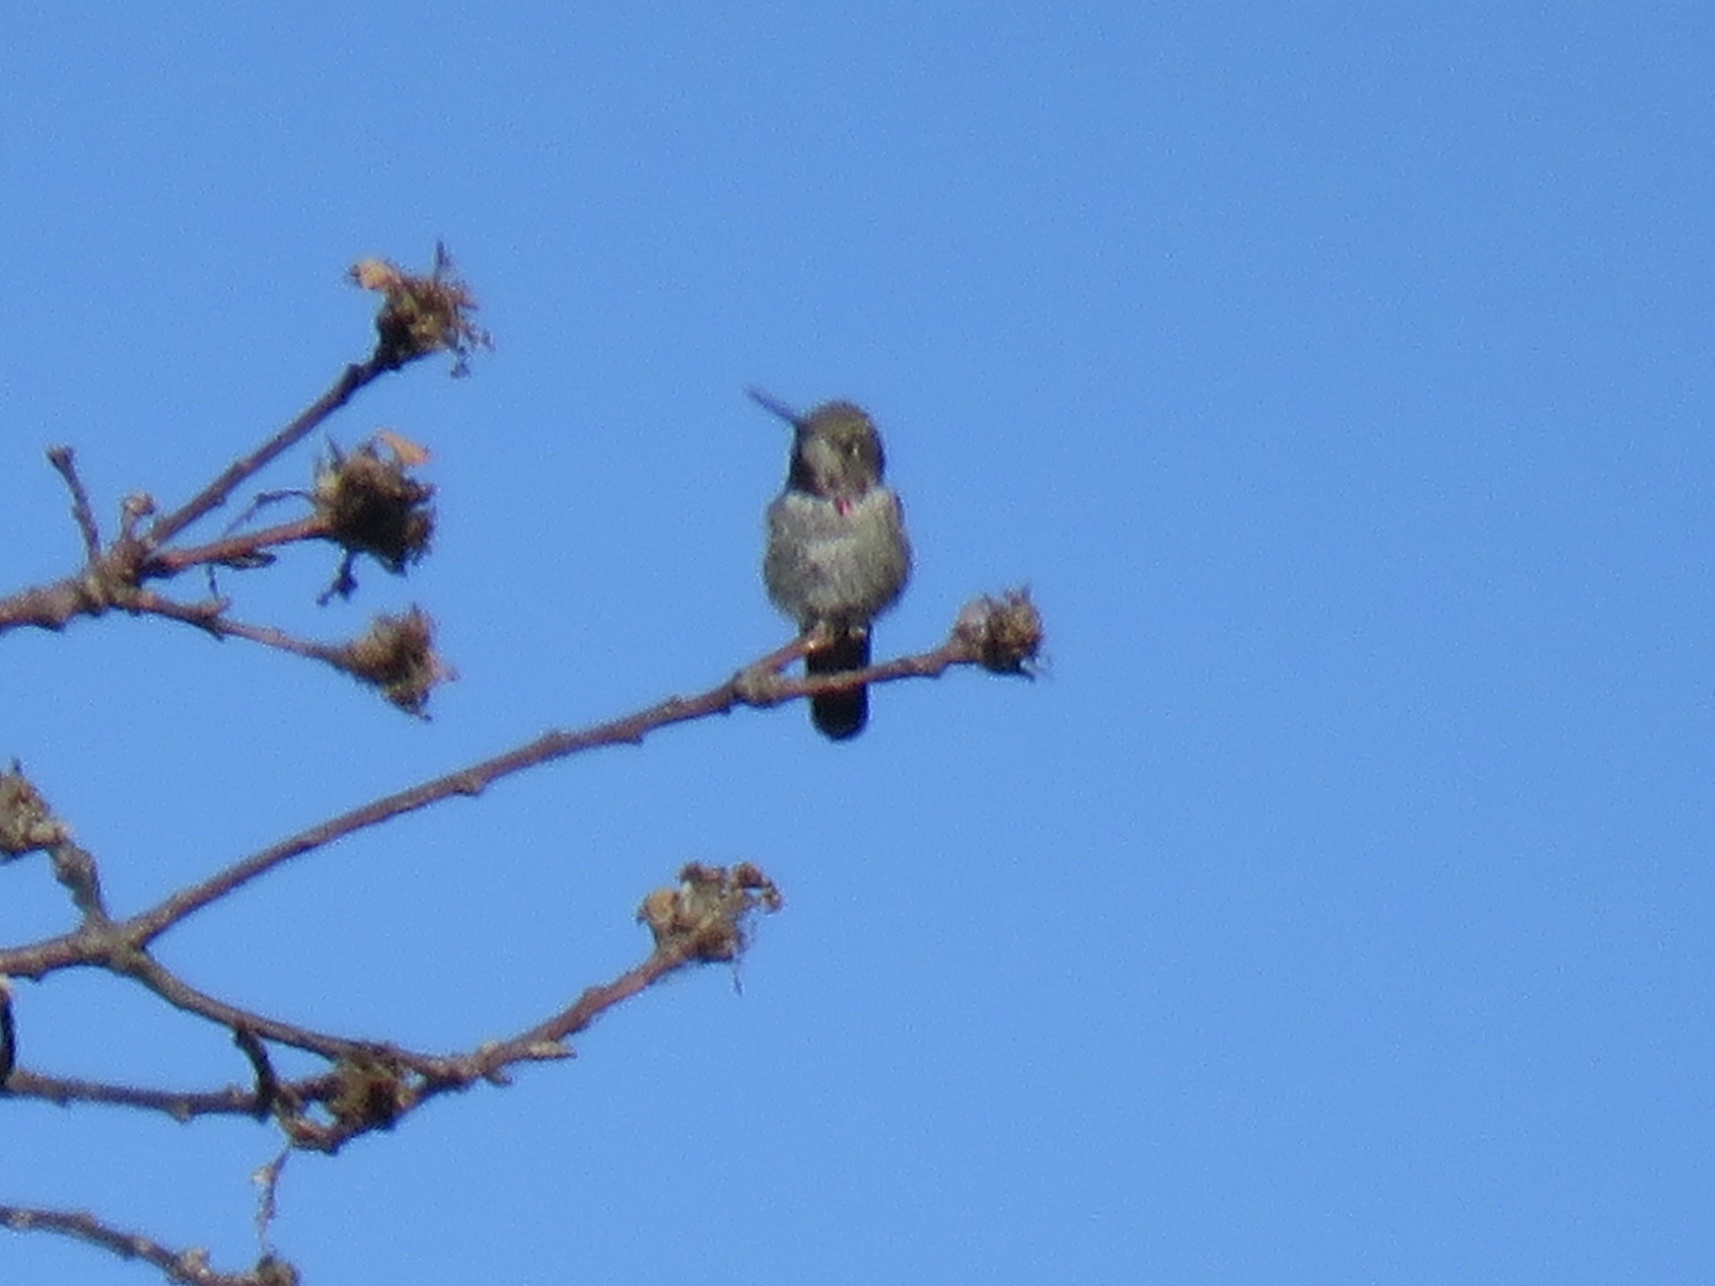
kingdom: Animalia
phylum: Chordata
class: Aves
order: Apodiformes
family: Trochilidae
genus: Calypte
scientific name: Calypte anna
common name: Anna's hummingbird
